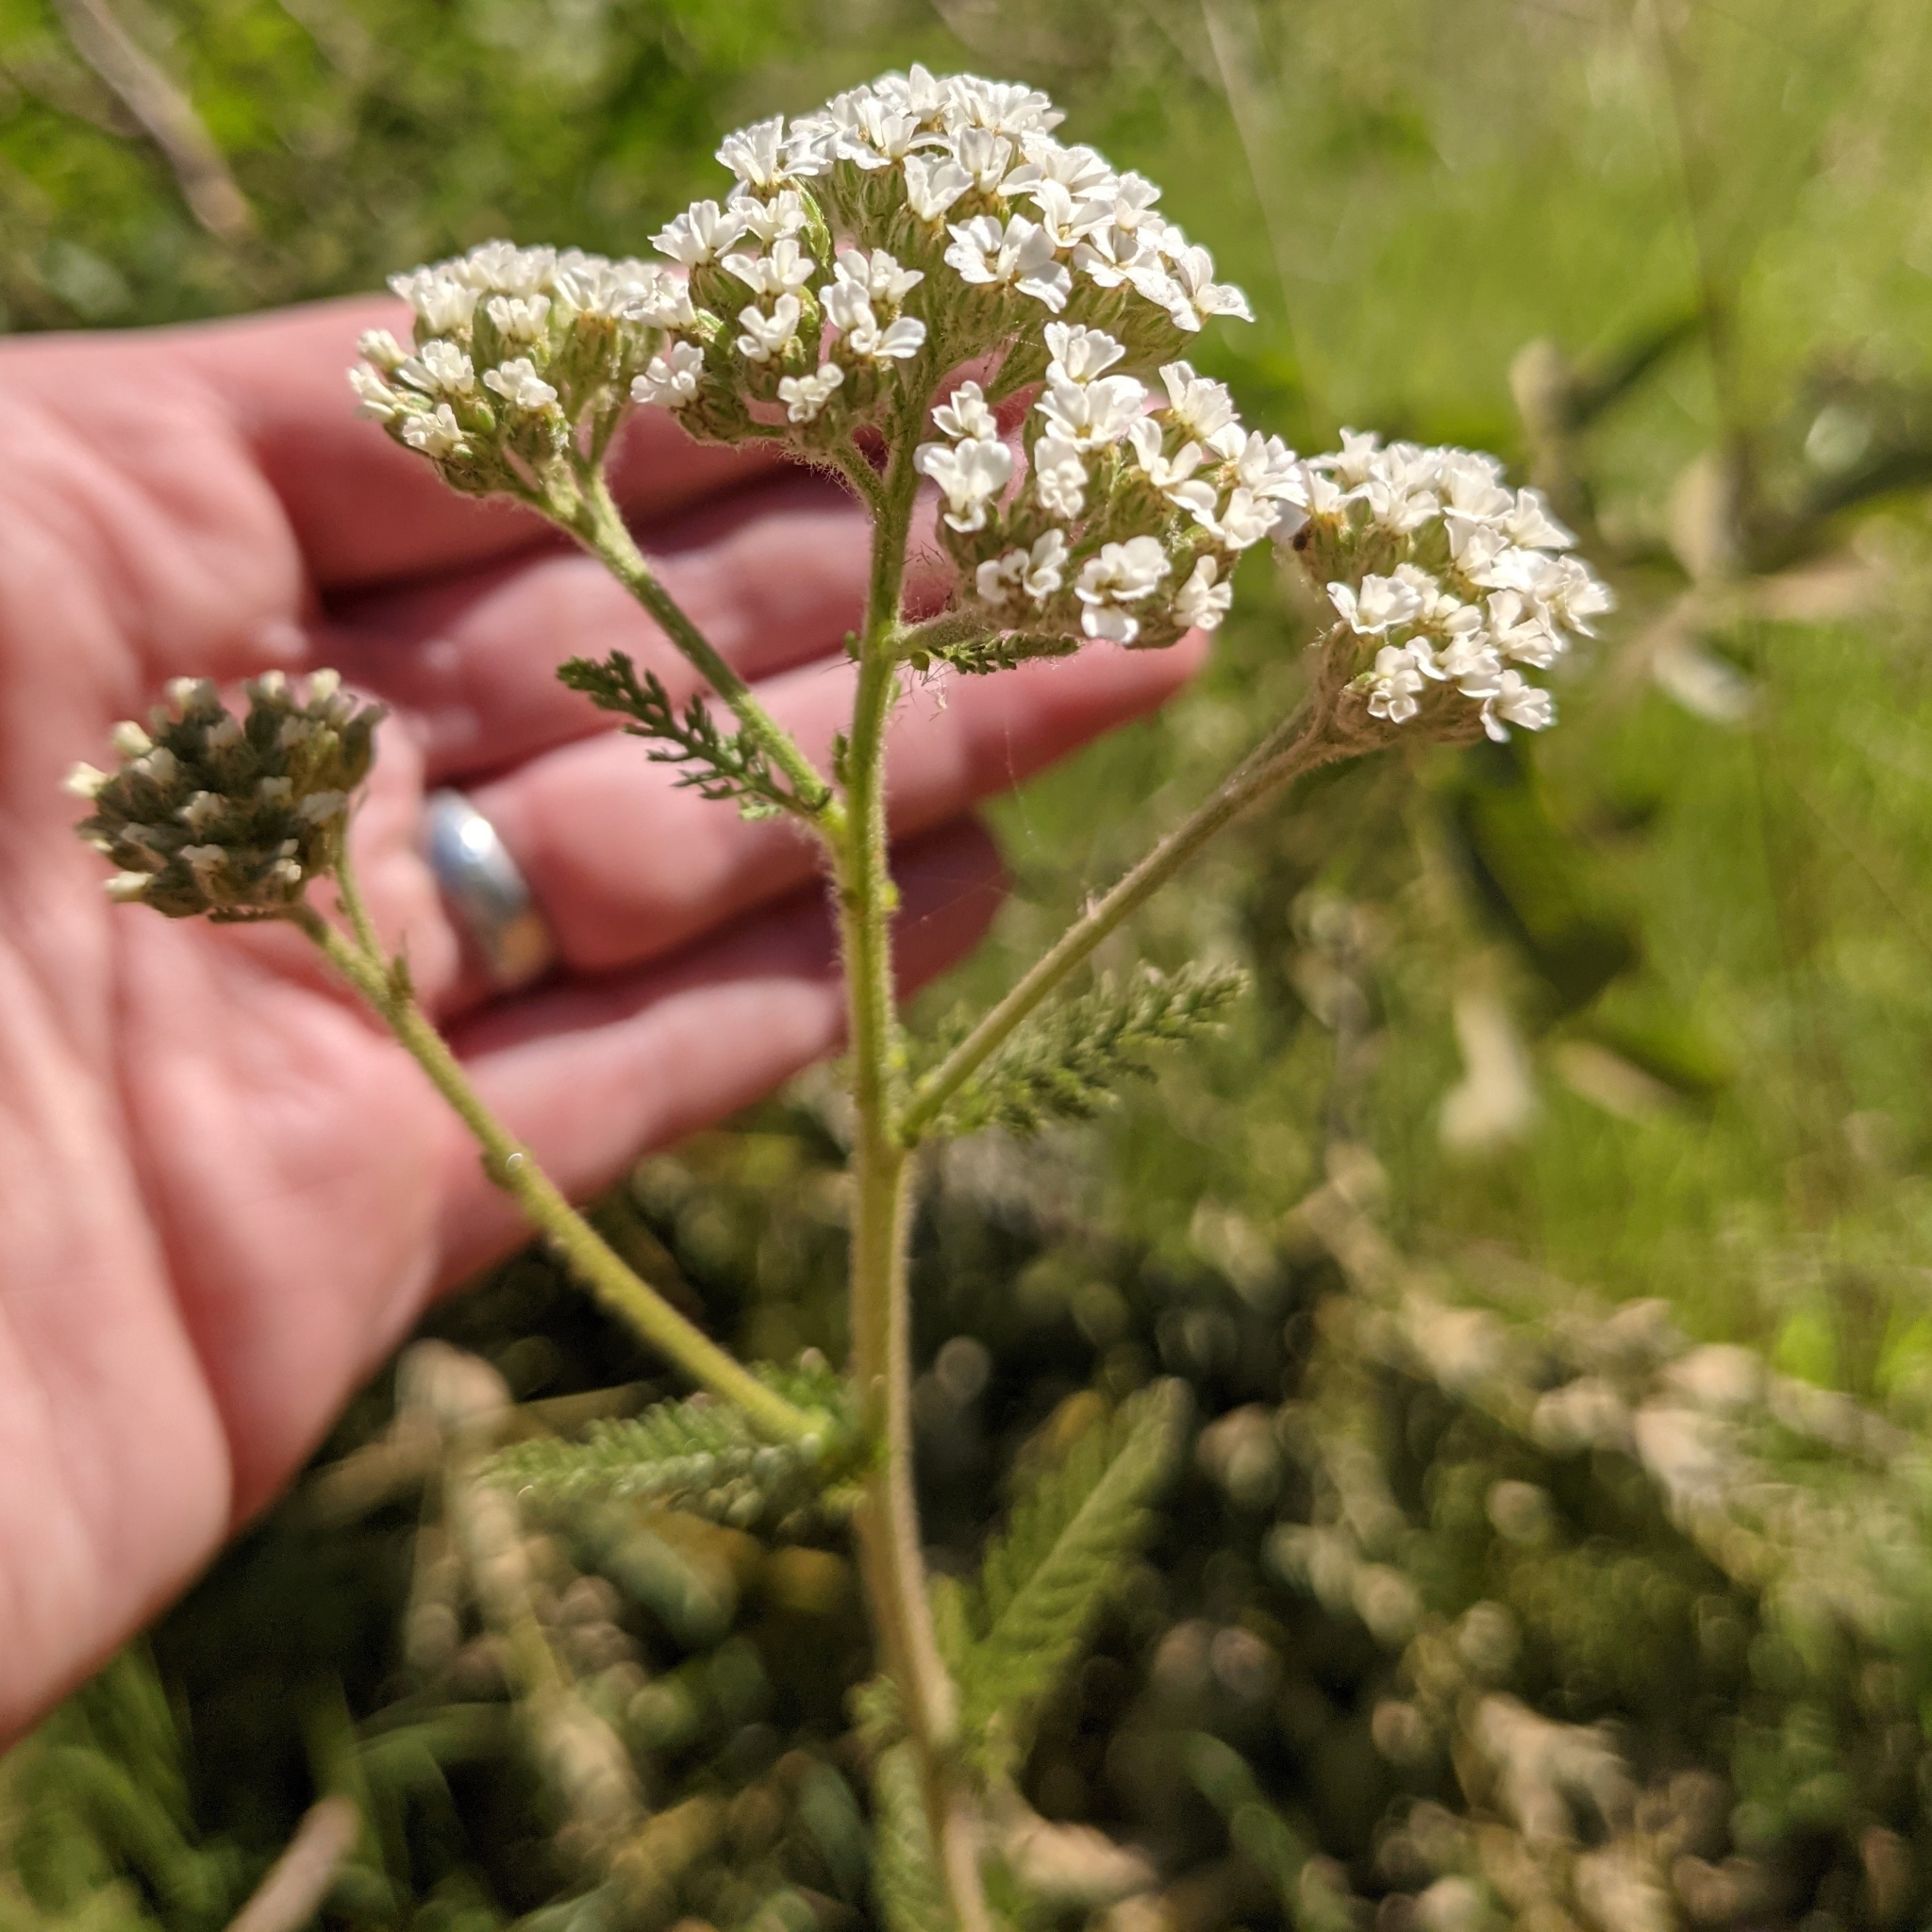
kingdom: Plantae
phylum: Tracheophyta
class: Magnoliopsida
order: Asterales
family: Asteraceae
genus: Achillea
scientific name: Achillea millefolium
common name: Yarrow
